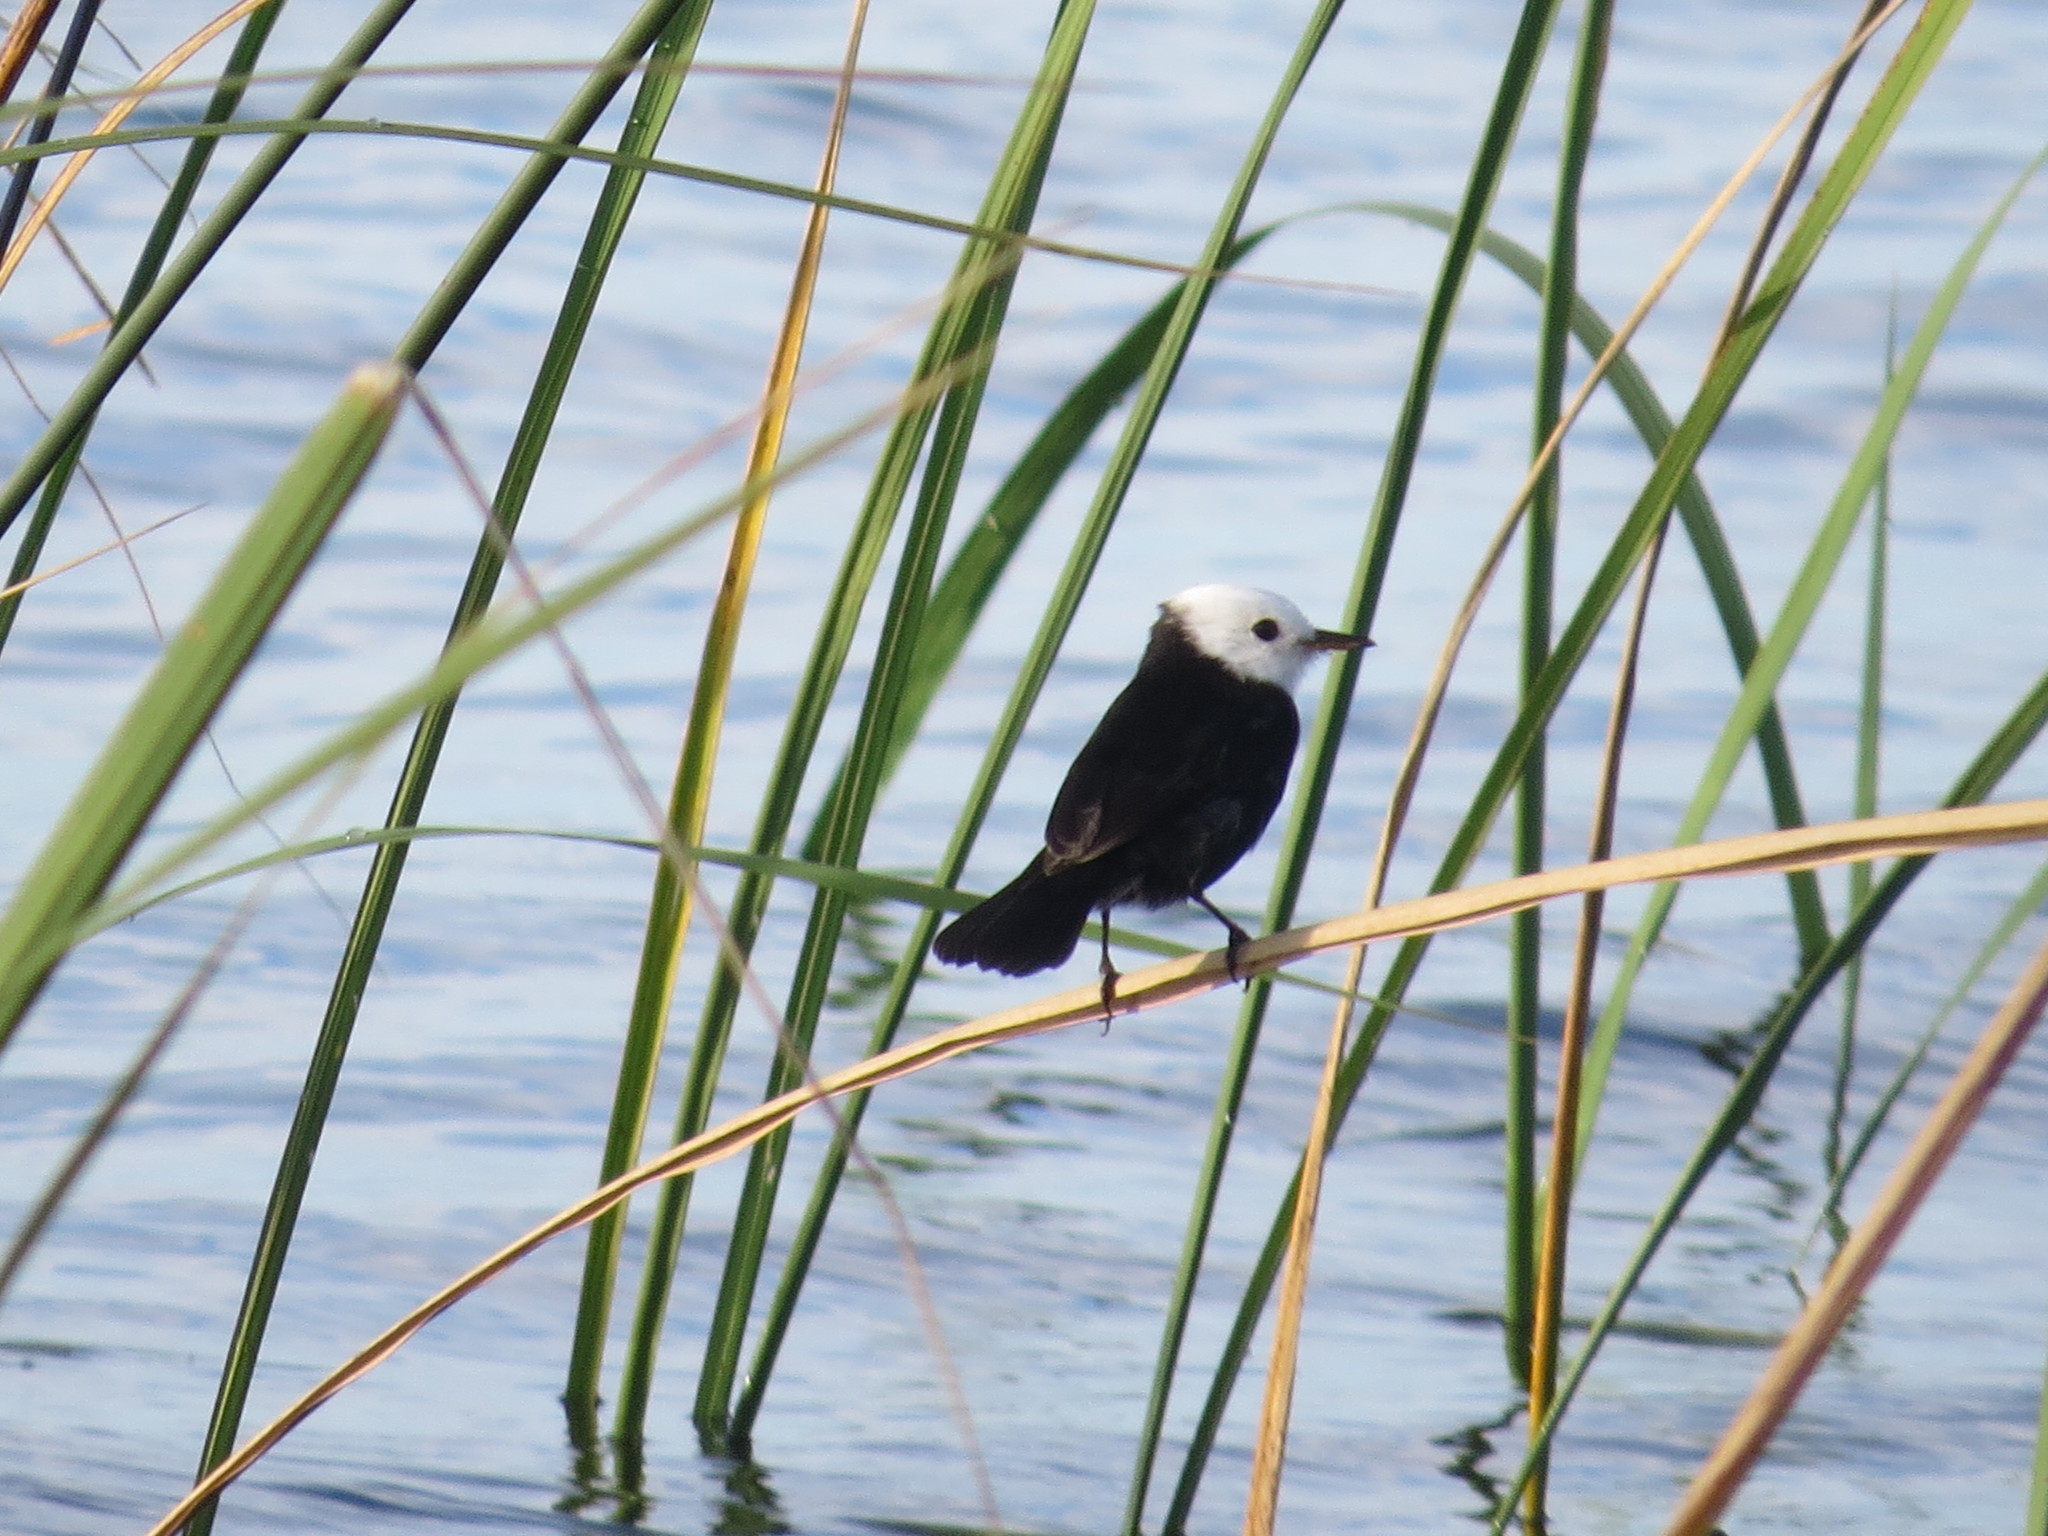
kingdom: Animalia
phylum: Chordata
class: Aves
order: Passeriformes
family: Tyrannidae
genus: Arundinicola
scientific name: Arundinicola leucocephala
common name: White-headed marsh tyrant
